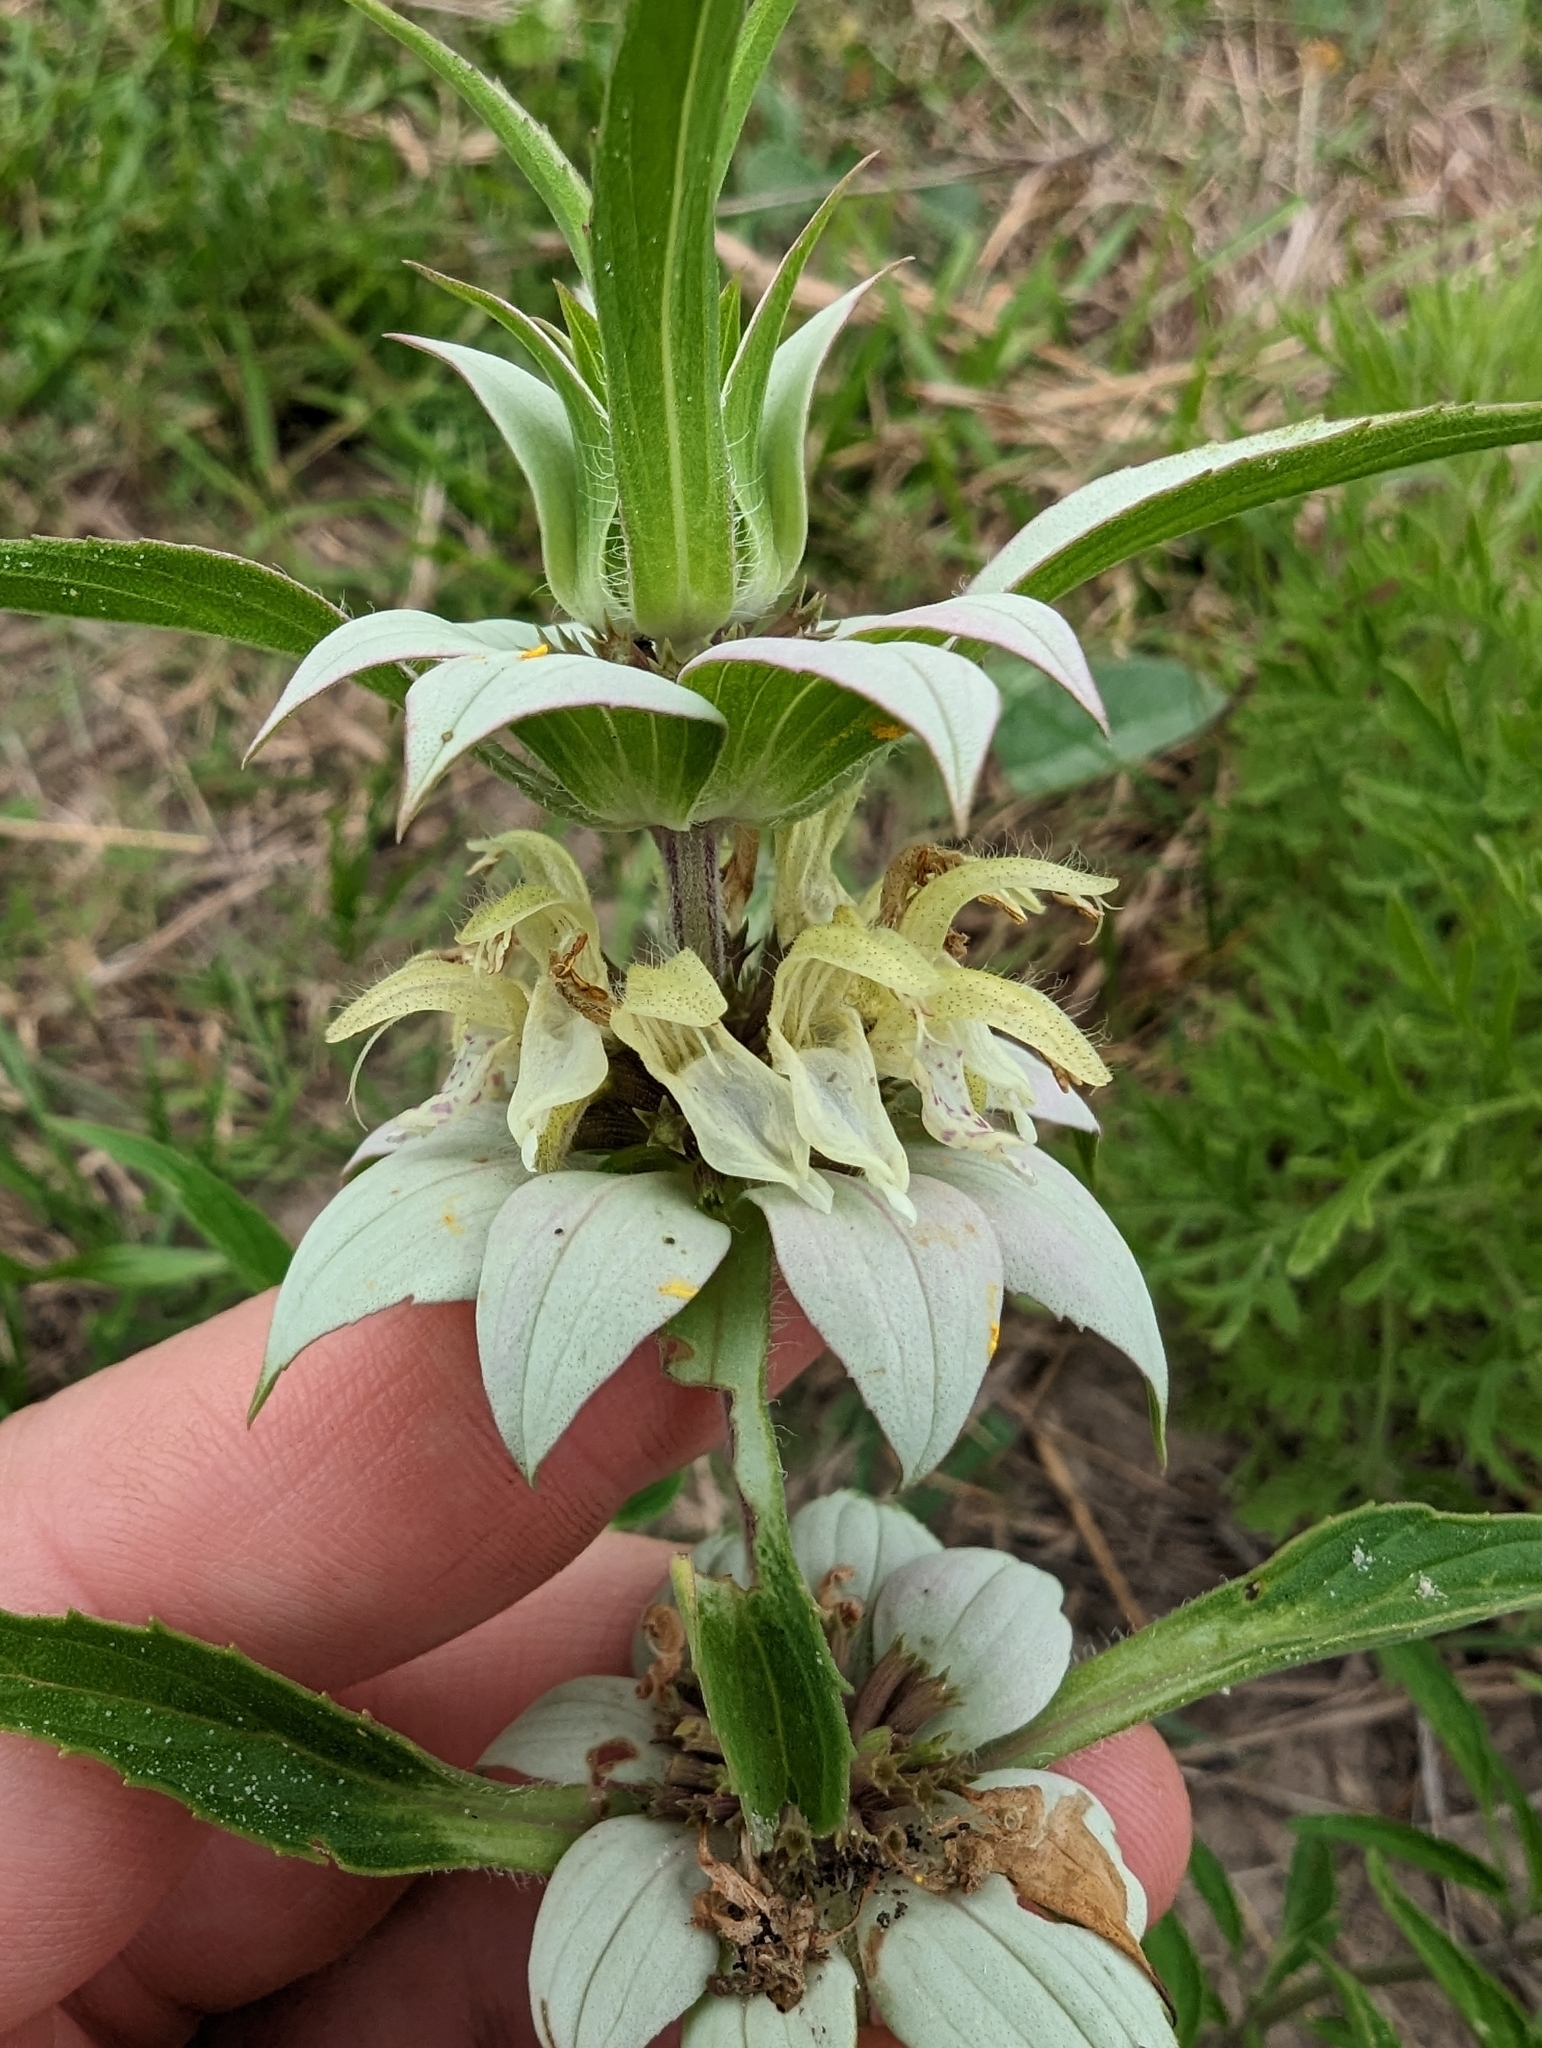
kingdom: Plantae
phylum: Tracheophyta
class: Magnoliopsida
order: Lamiales
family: Lamiaceae
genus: Monarda
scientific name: Monarda punctata
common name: Dotted monarda
